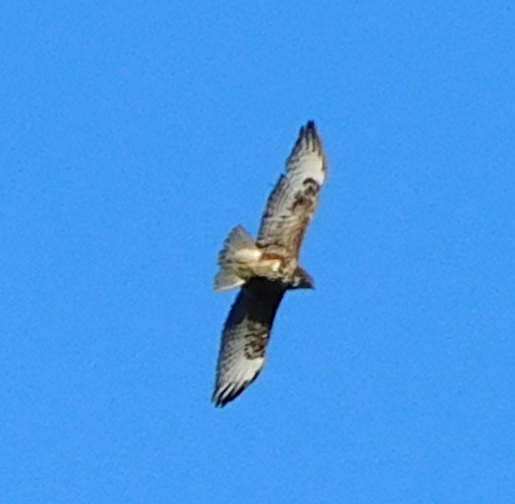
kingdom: Animalia
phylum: Chordata
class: Aves
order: Accipitriformes
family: Accipitridae
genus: Buteo
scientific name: Buteo buteo
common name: Common buzzard
